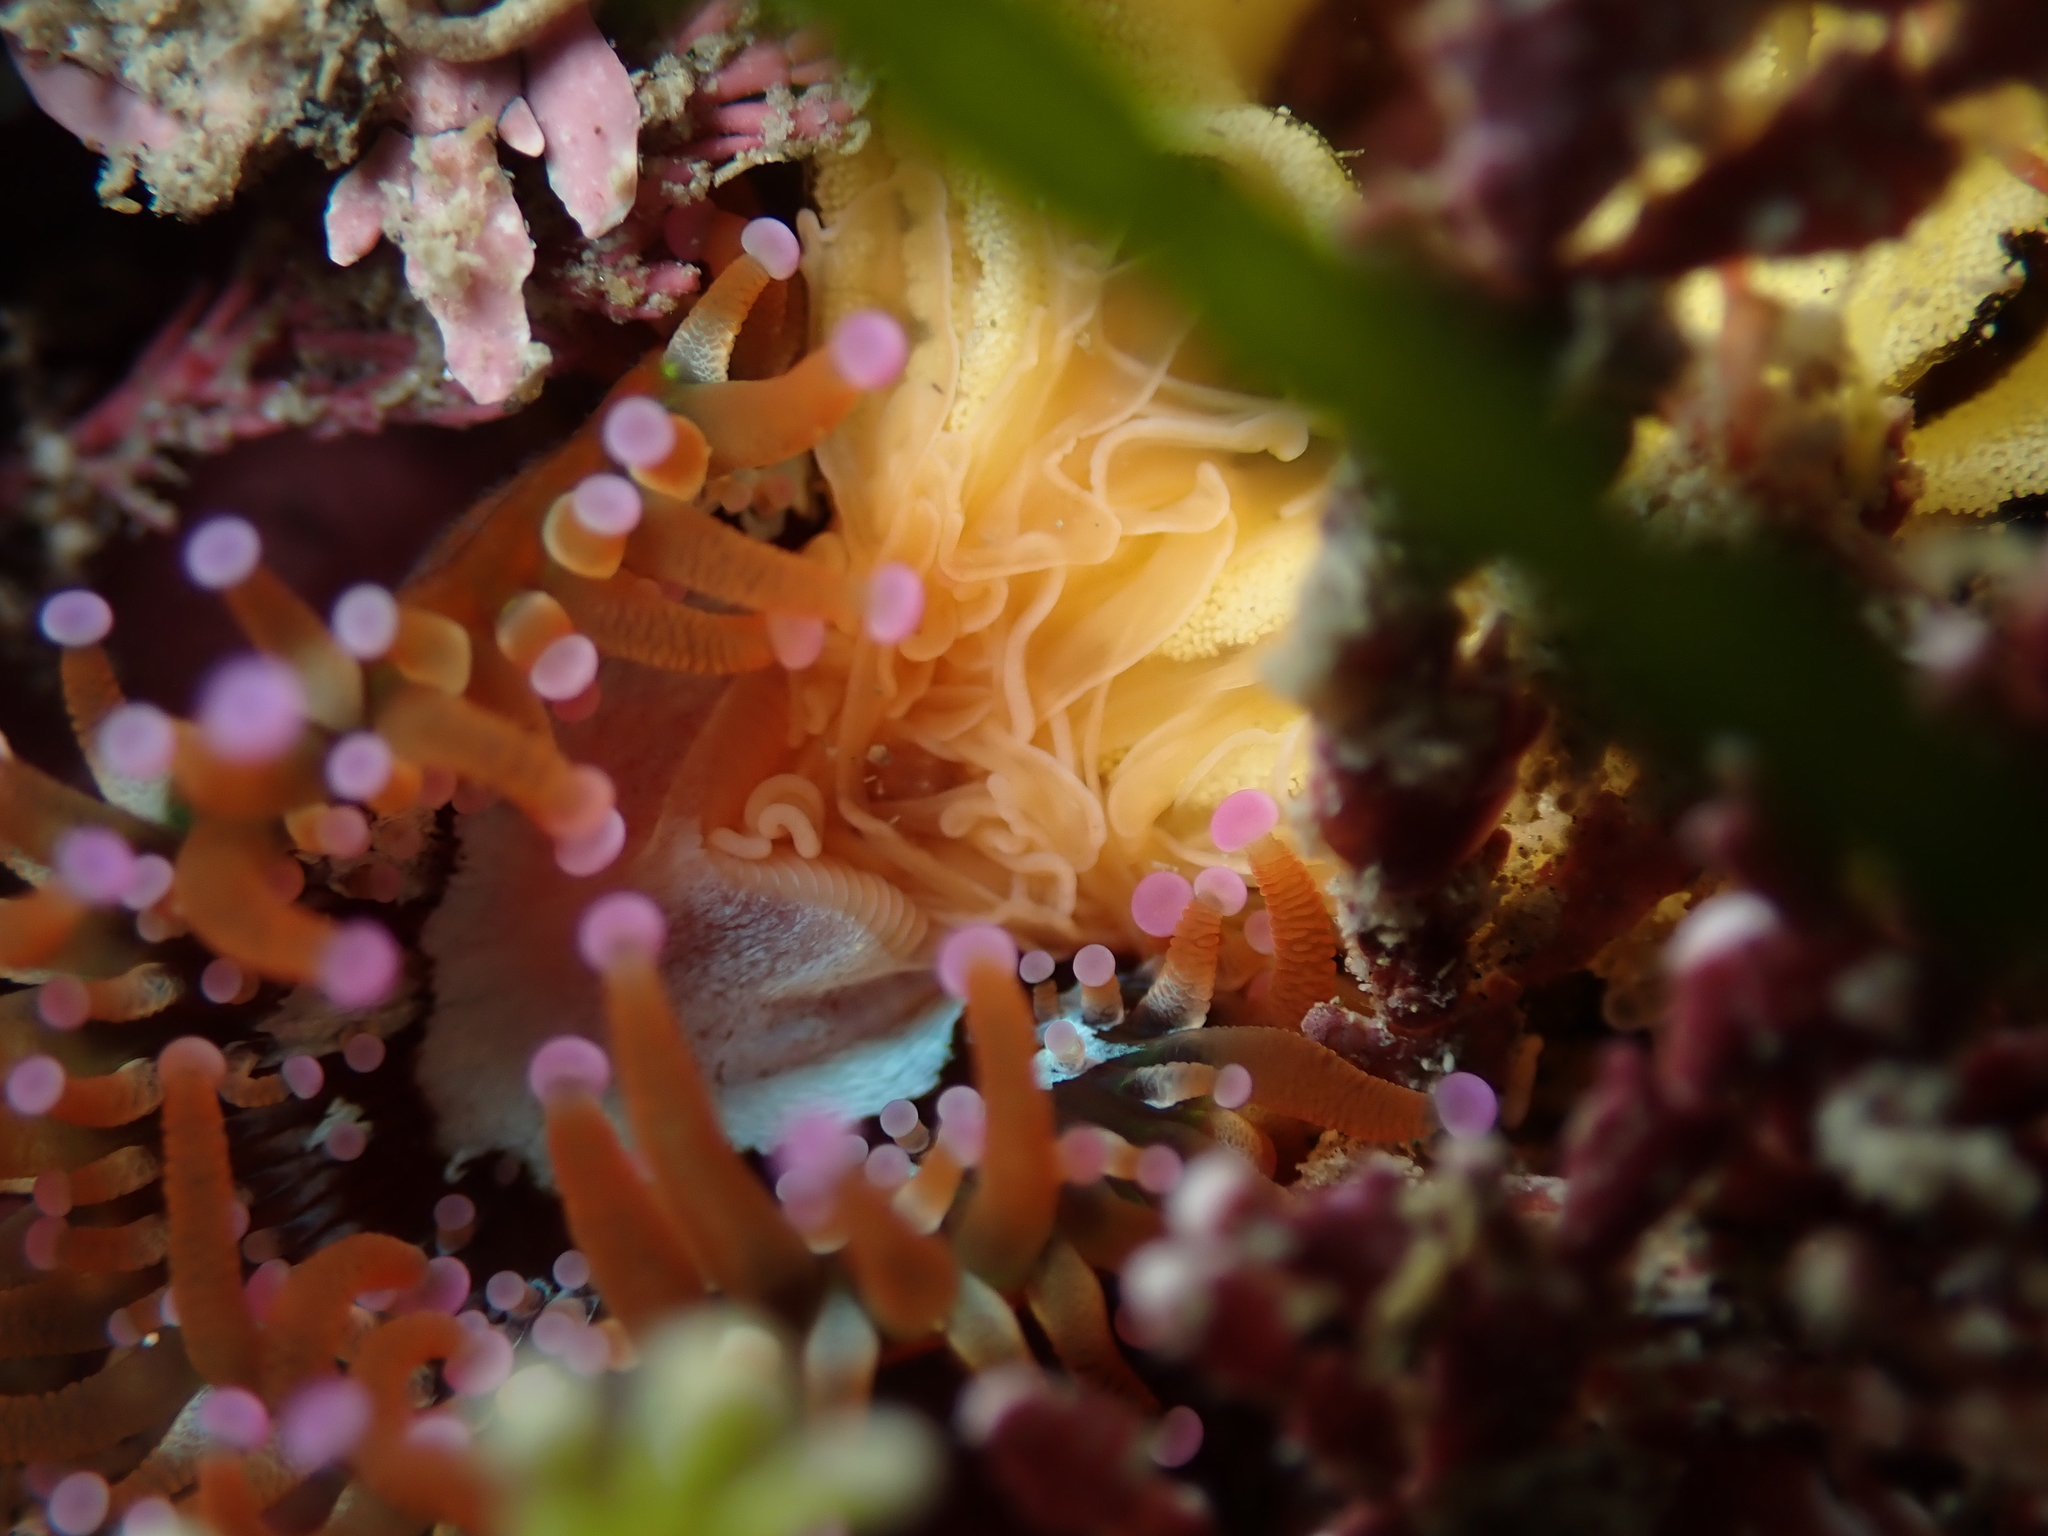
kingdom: Animalia
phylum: Cnidaria
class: Anthozoa
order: Corallimorpharia
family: Corallimorphidae
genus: Corynactis
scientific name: Corynactis australis
